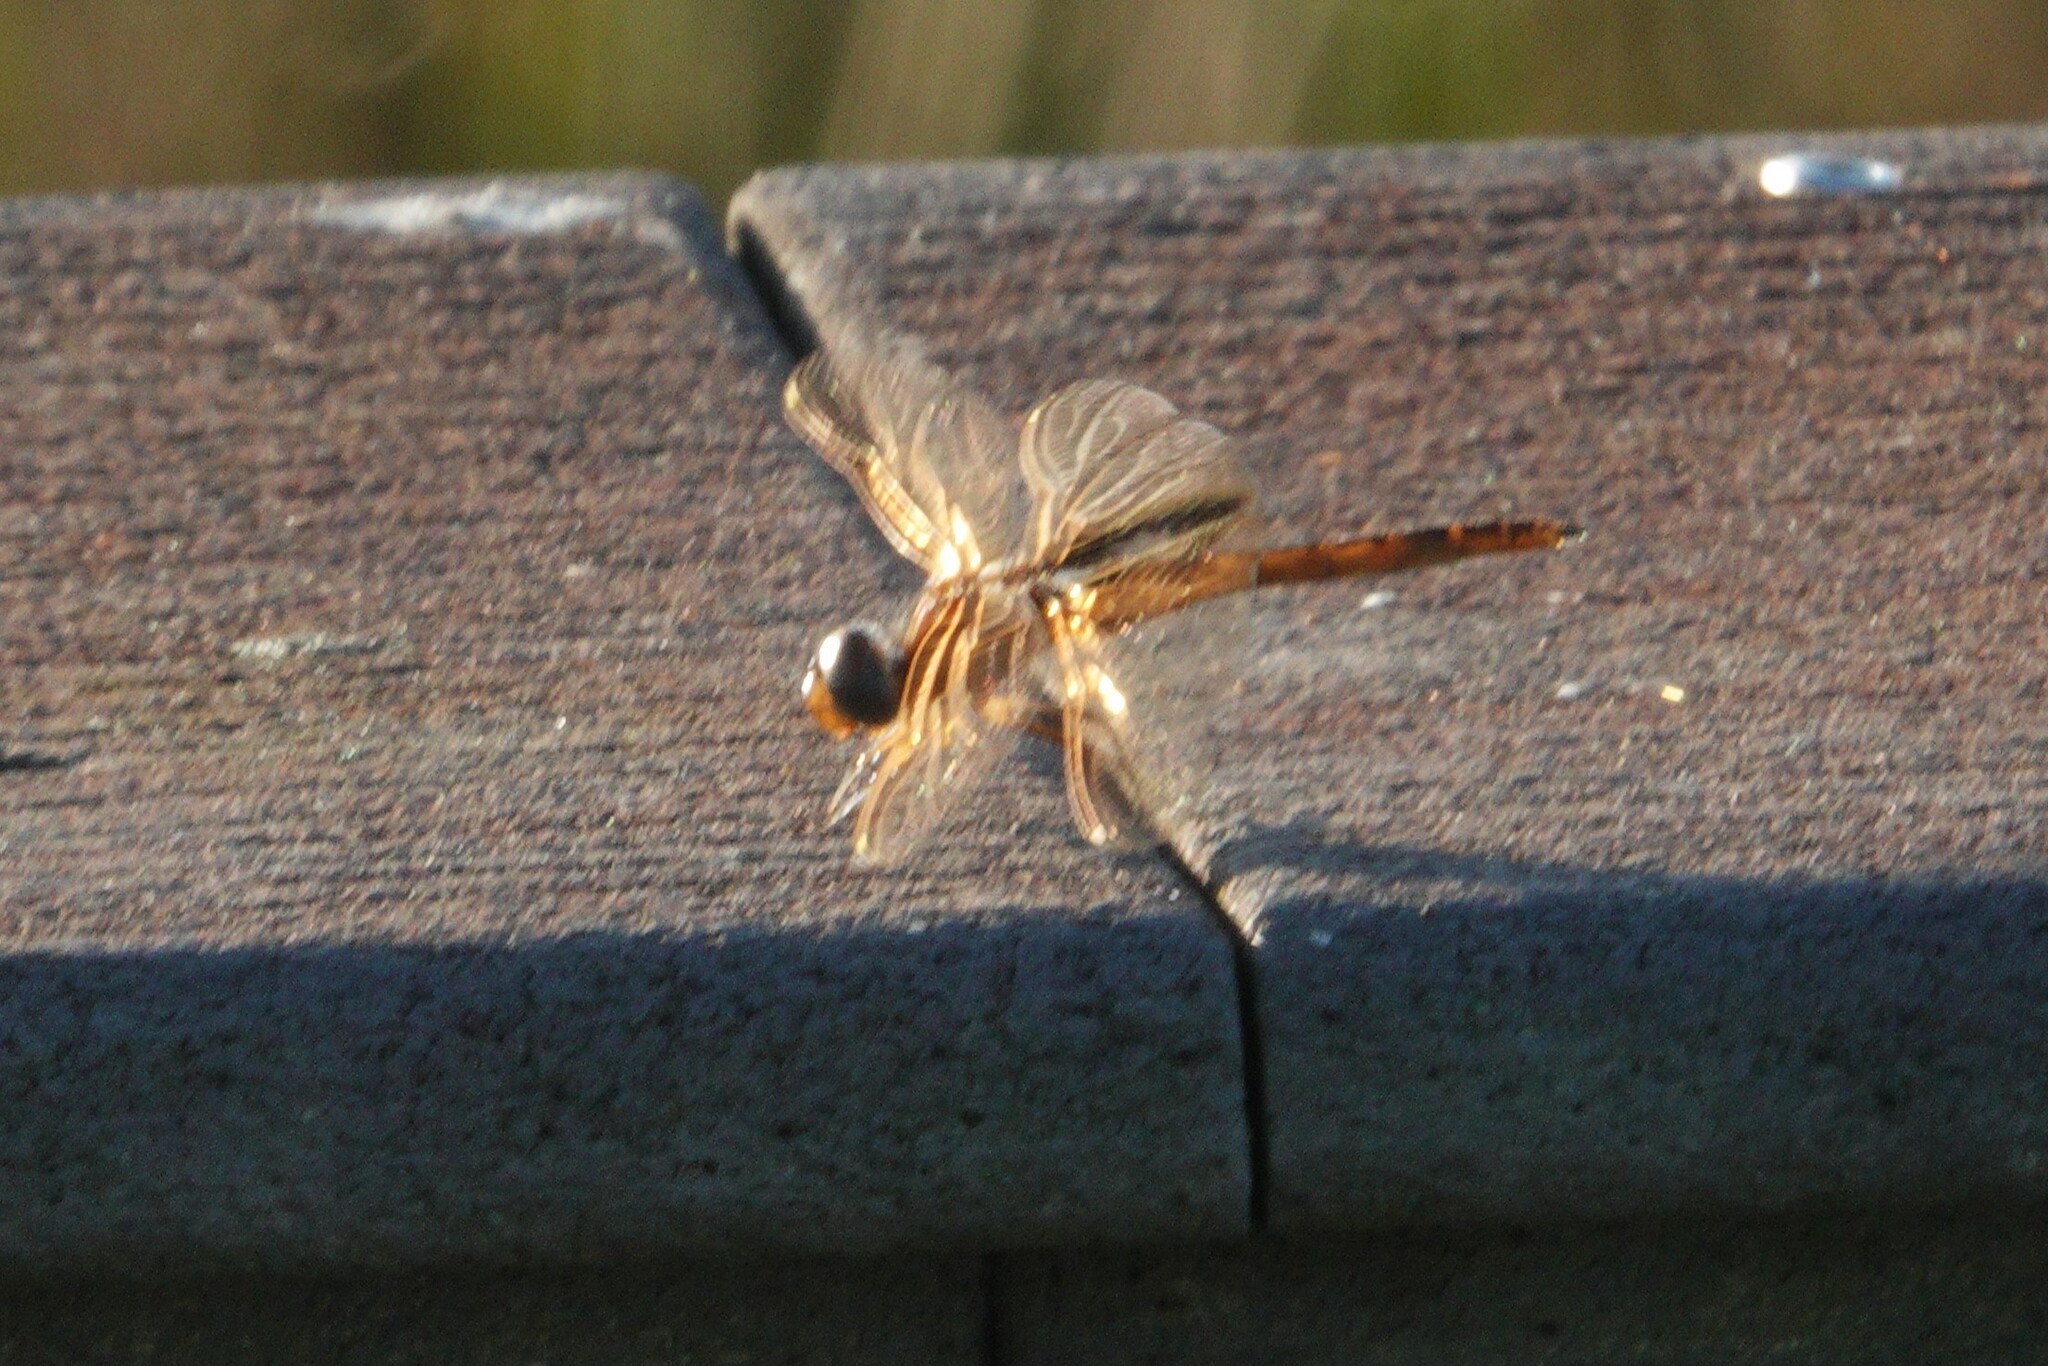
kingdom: Animalia
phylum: Arthropoda
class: Insecta
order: Odonata
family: Libellulidae
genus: Miathyria
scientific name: Miathyria marcella
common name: Hyacinth glider
